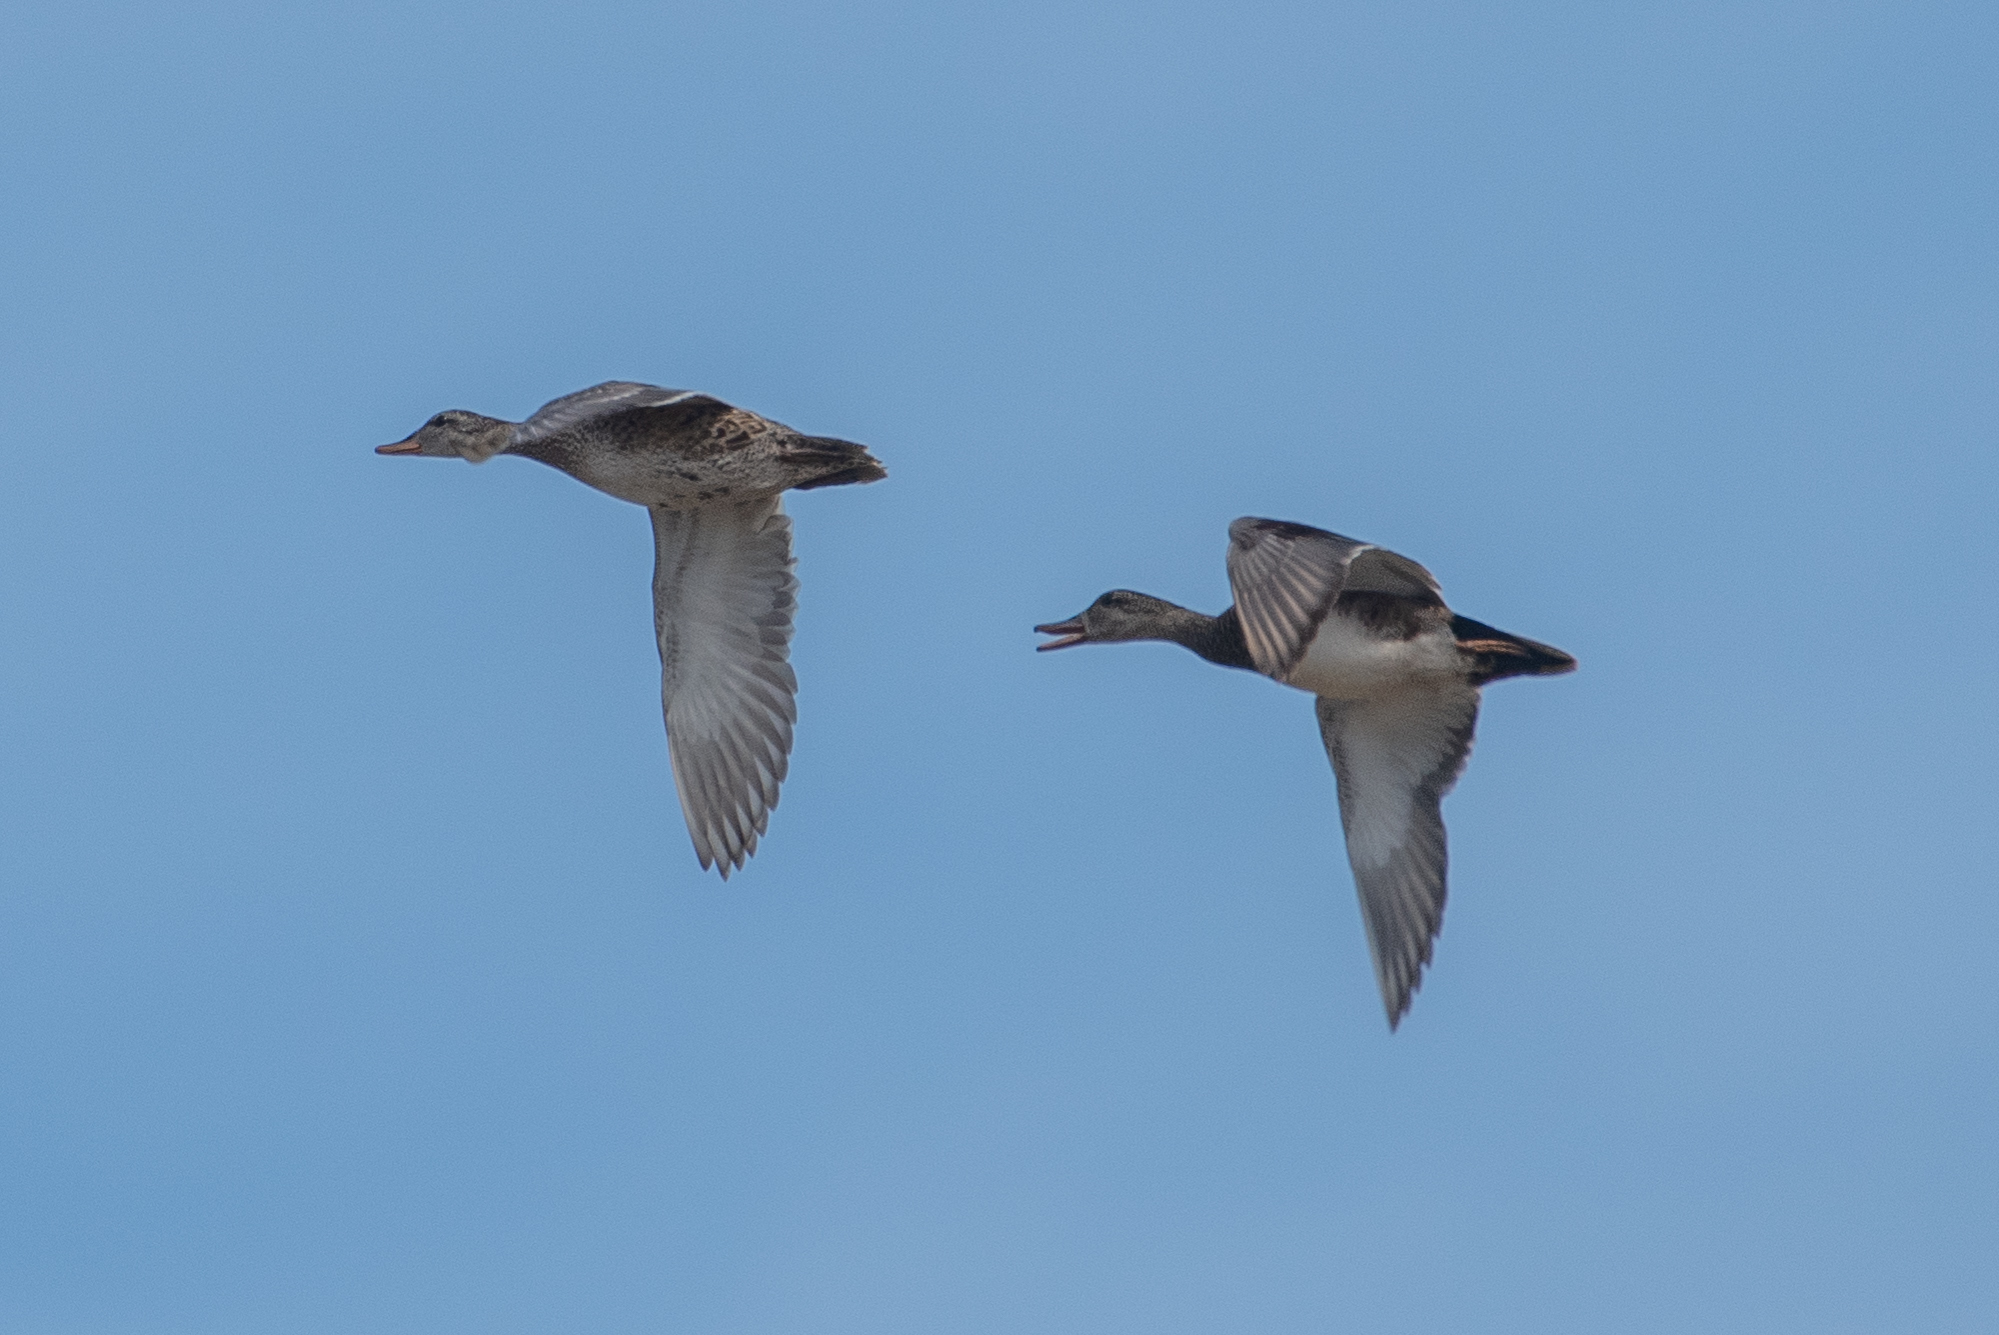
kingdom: Animalia
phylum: Chordata
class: Aves
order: Anseriformes
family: Anatidae
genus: Mareca
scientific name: Mareca strepera
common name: Gadwall
